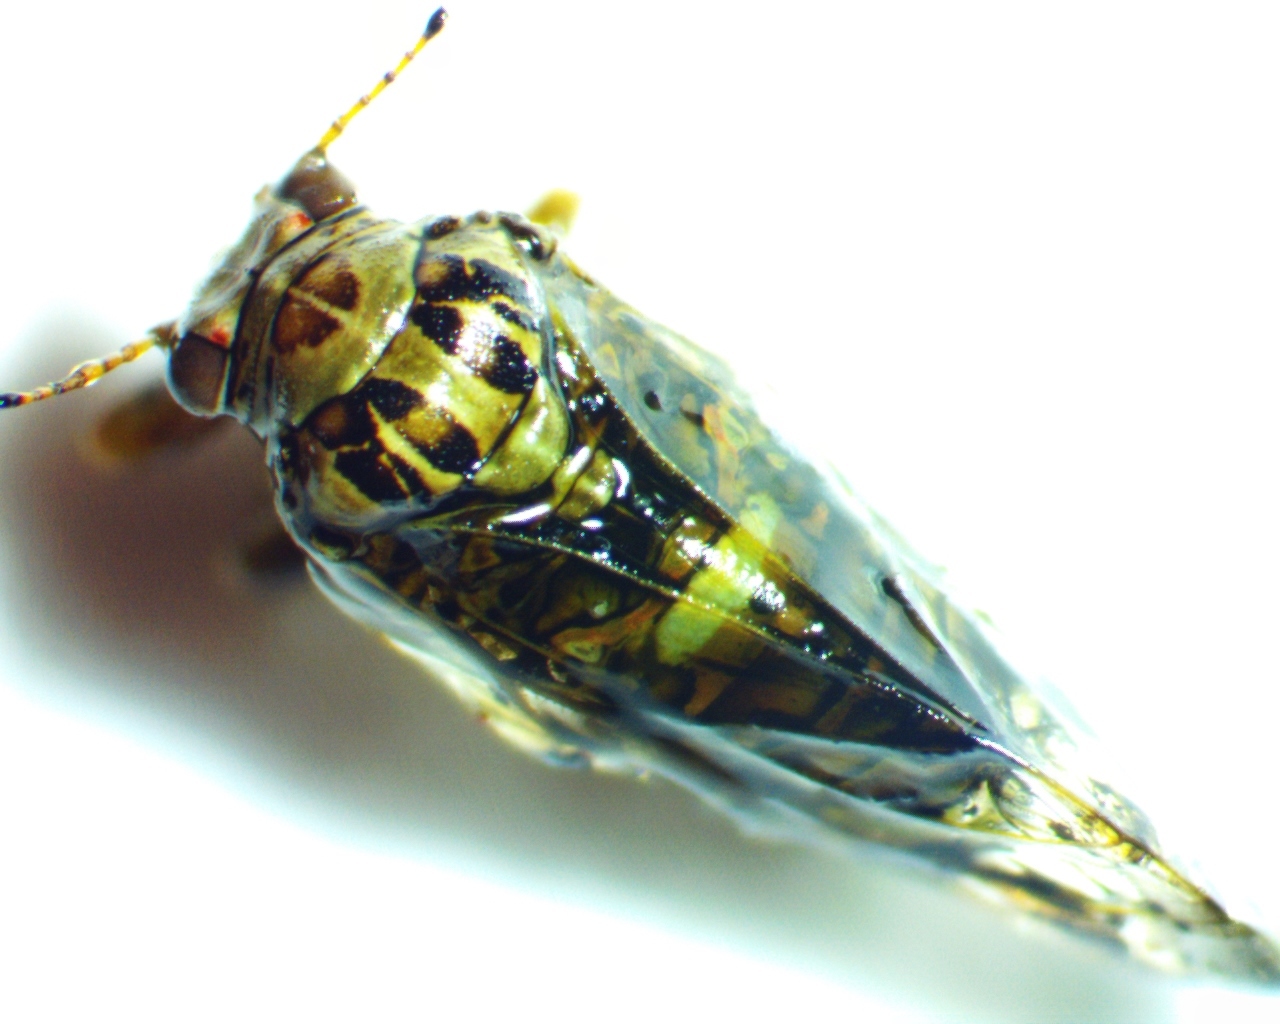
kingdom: Animalia
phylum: Arthropoda
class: Insecta
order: Hemiptera
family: Aphalaridae
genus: Pachypsylla
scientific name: Pachypsylla venusta
